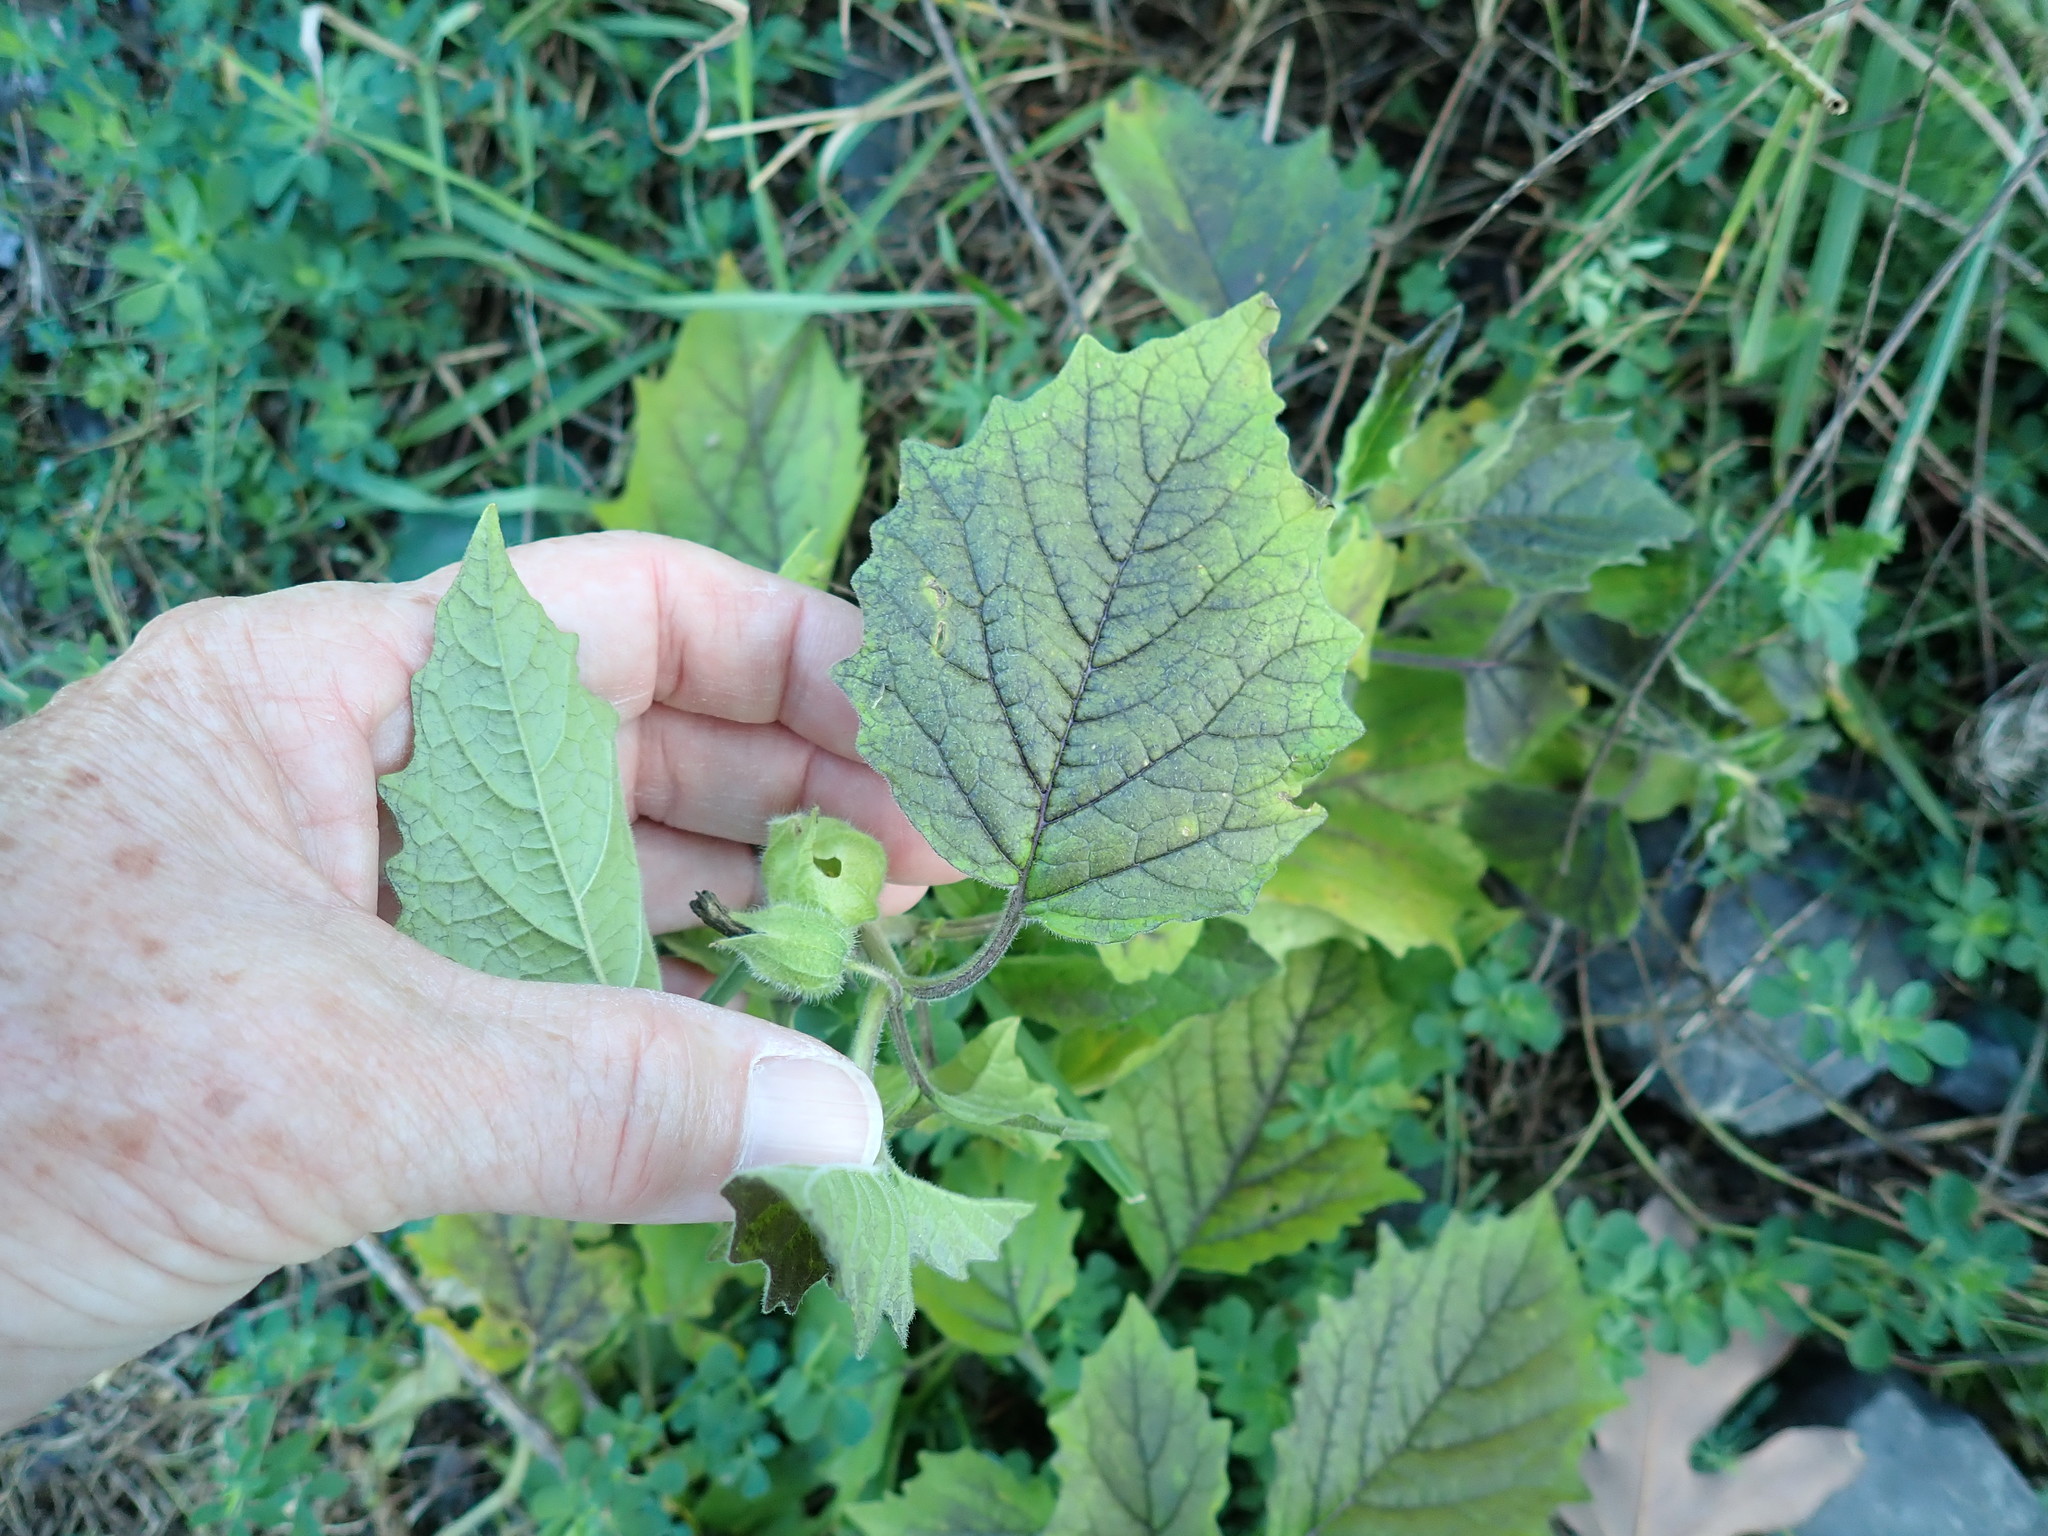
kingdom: Plantae
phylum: Tracheophyta
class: Magnoliopsida
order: Solanales
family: Solanaceae
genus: Physalis
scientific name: Physalis heterophylla
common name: Clammy ground-cherry
